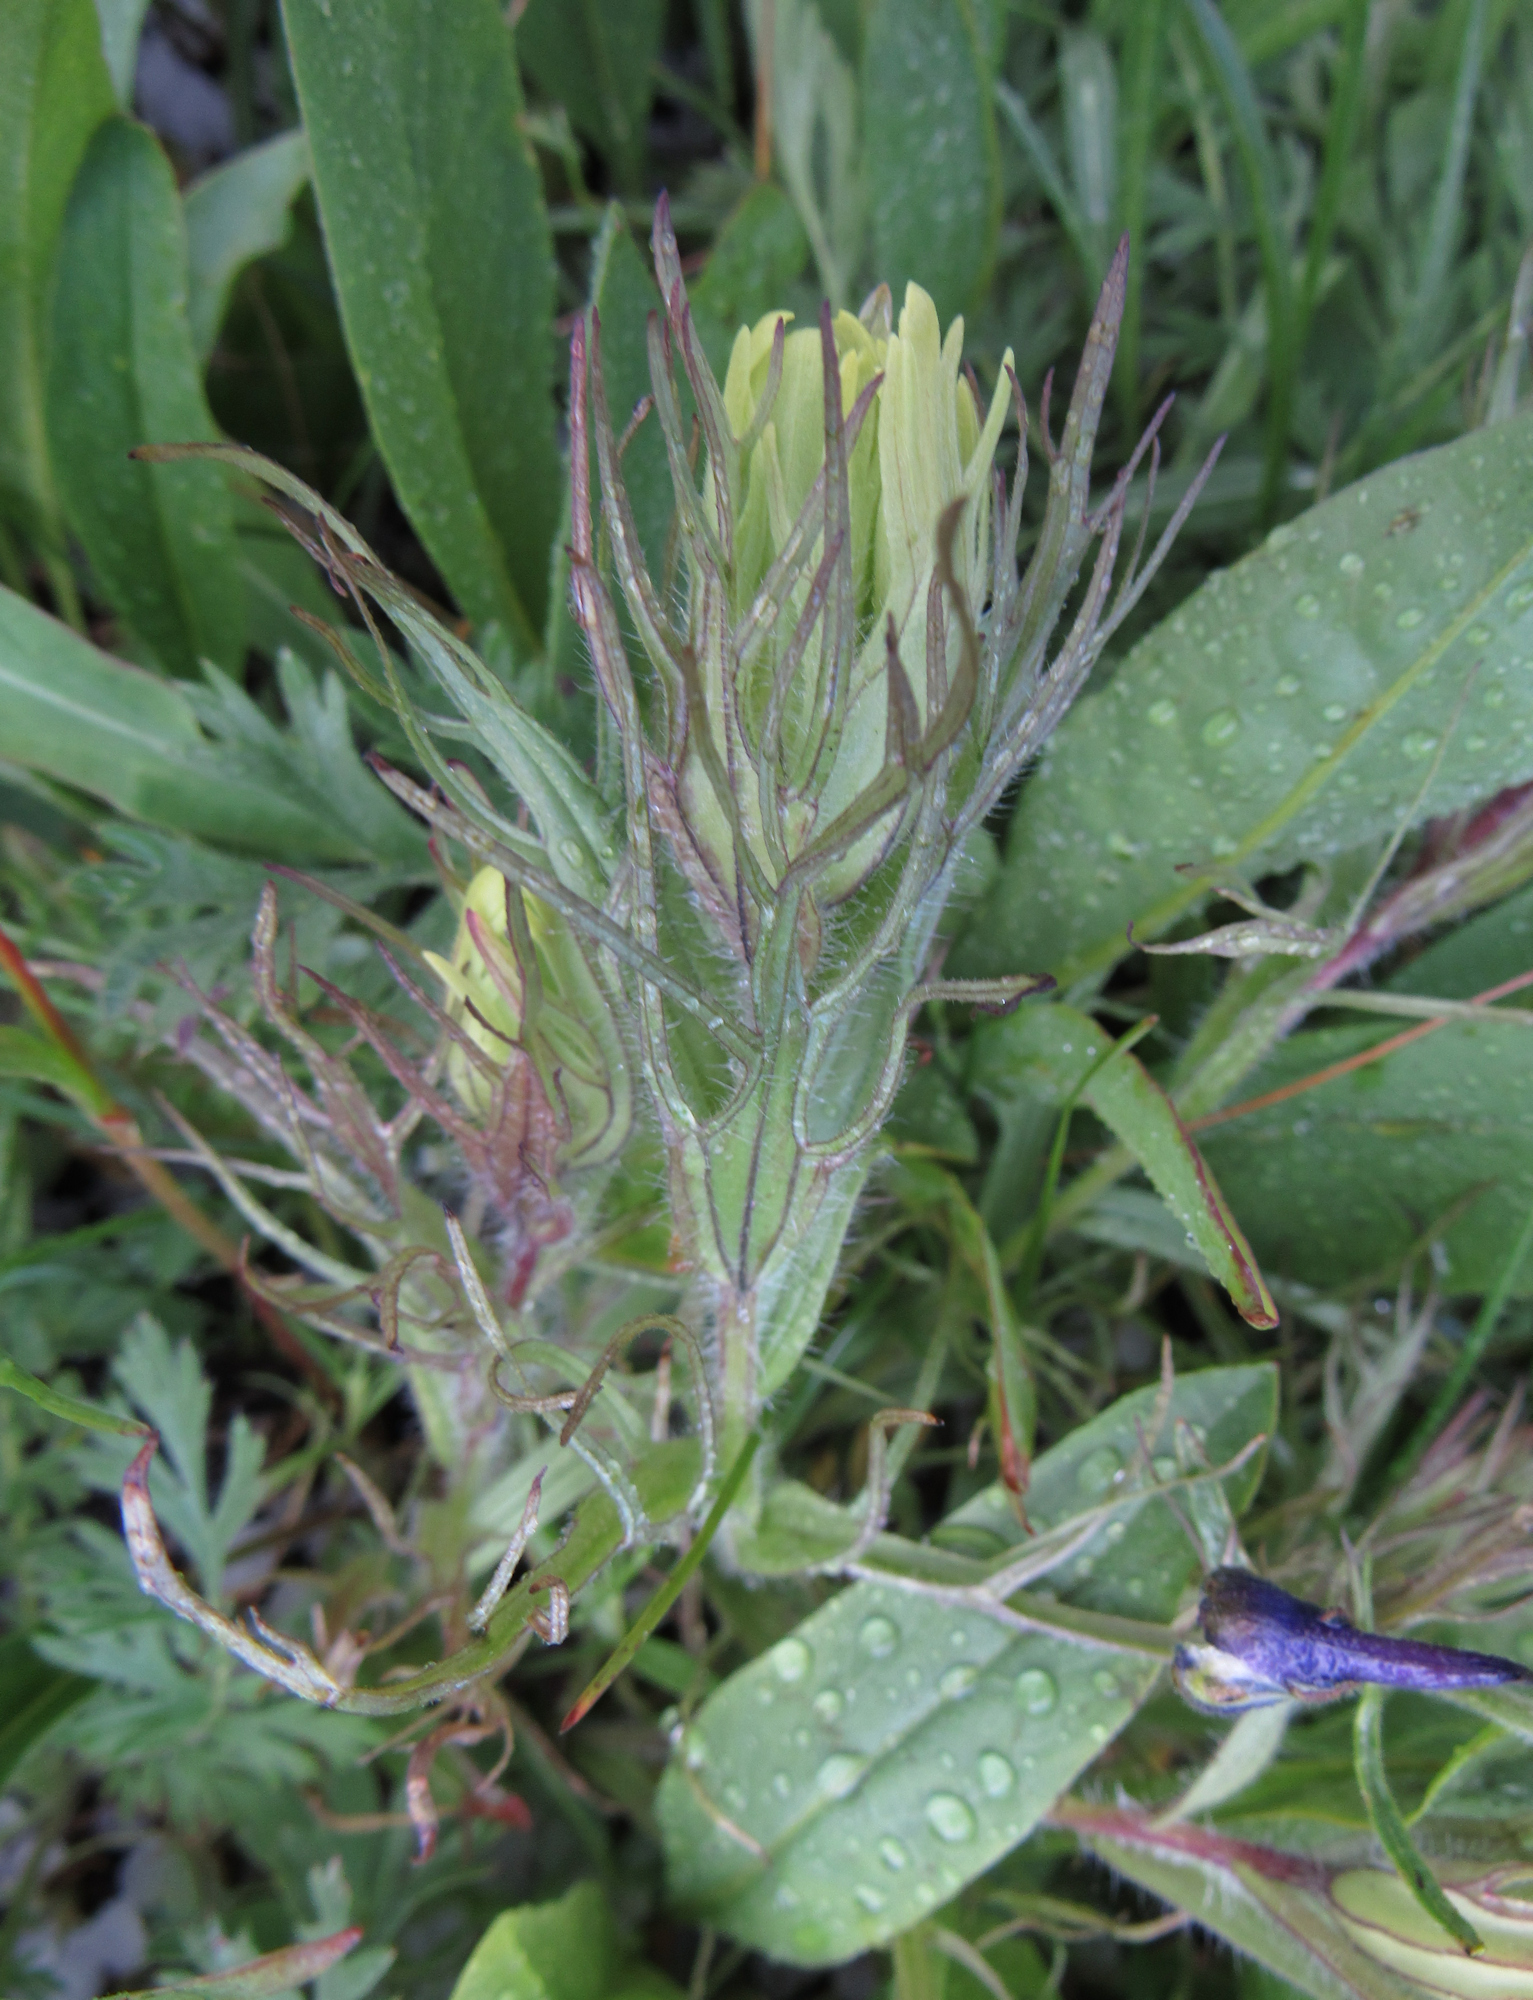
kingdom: Plantae
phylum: Tracheophyta
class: Magnoliopsida
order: Lamiales
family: Orobanchaceae
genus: Castilleja
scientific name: Castilleja cusickii
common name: Cusick's paintbrush
